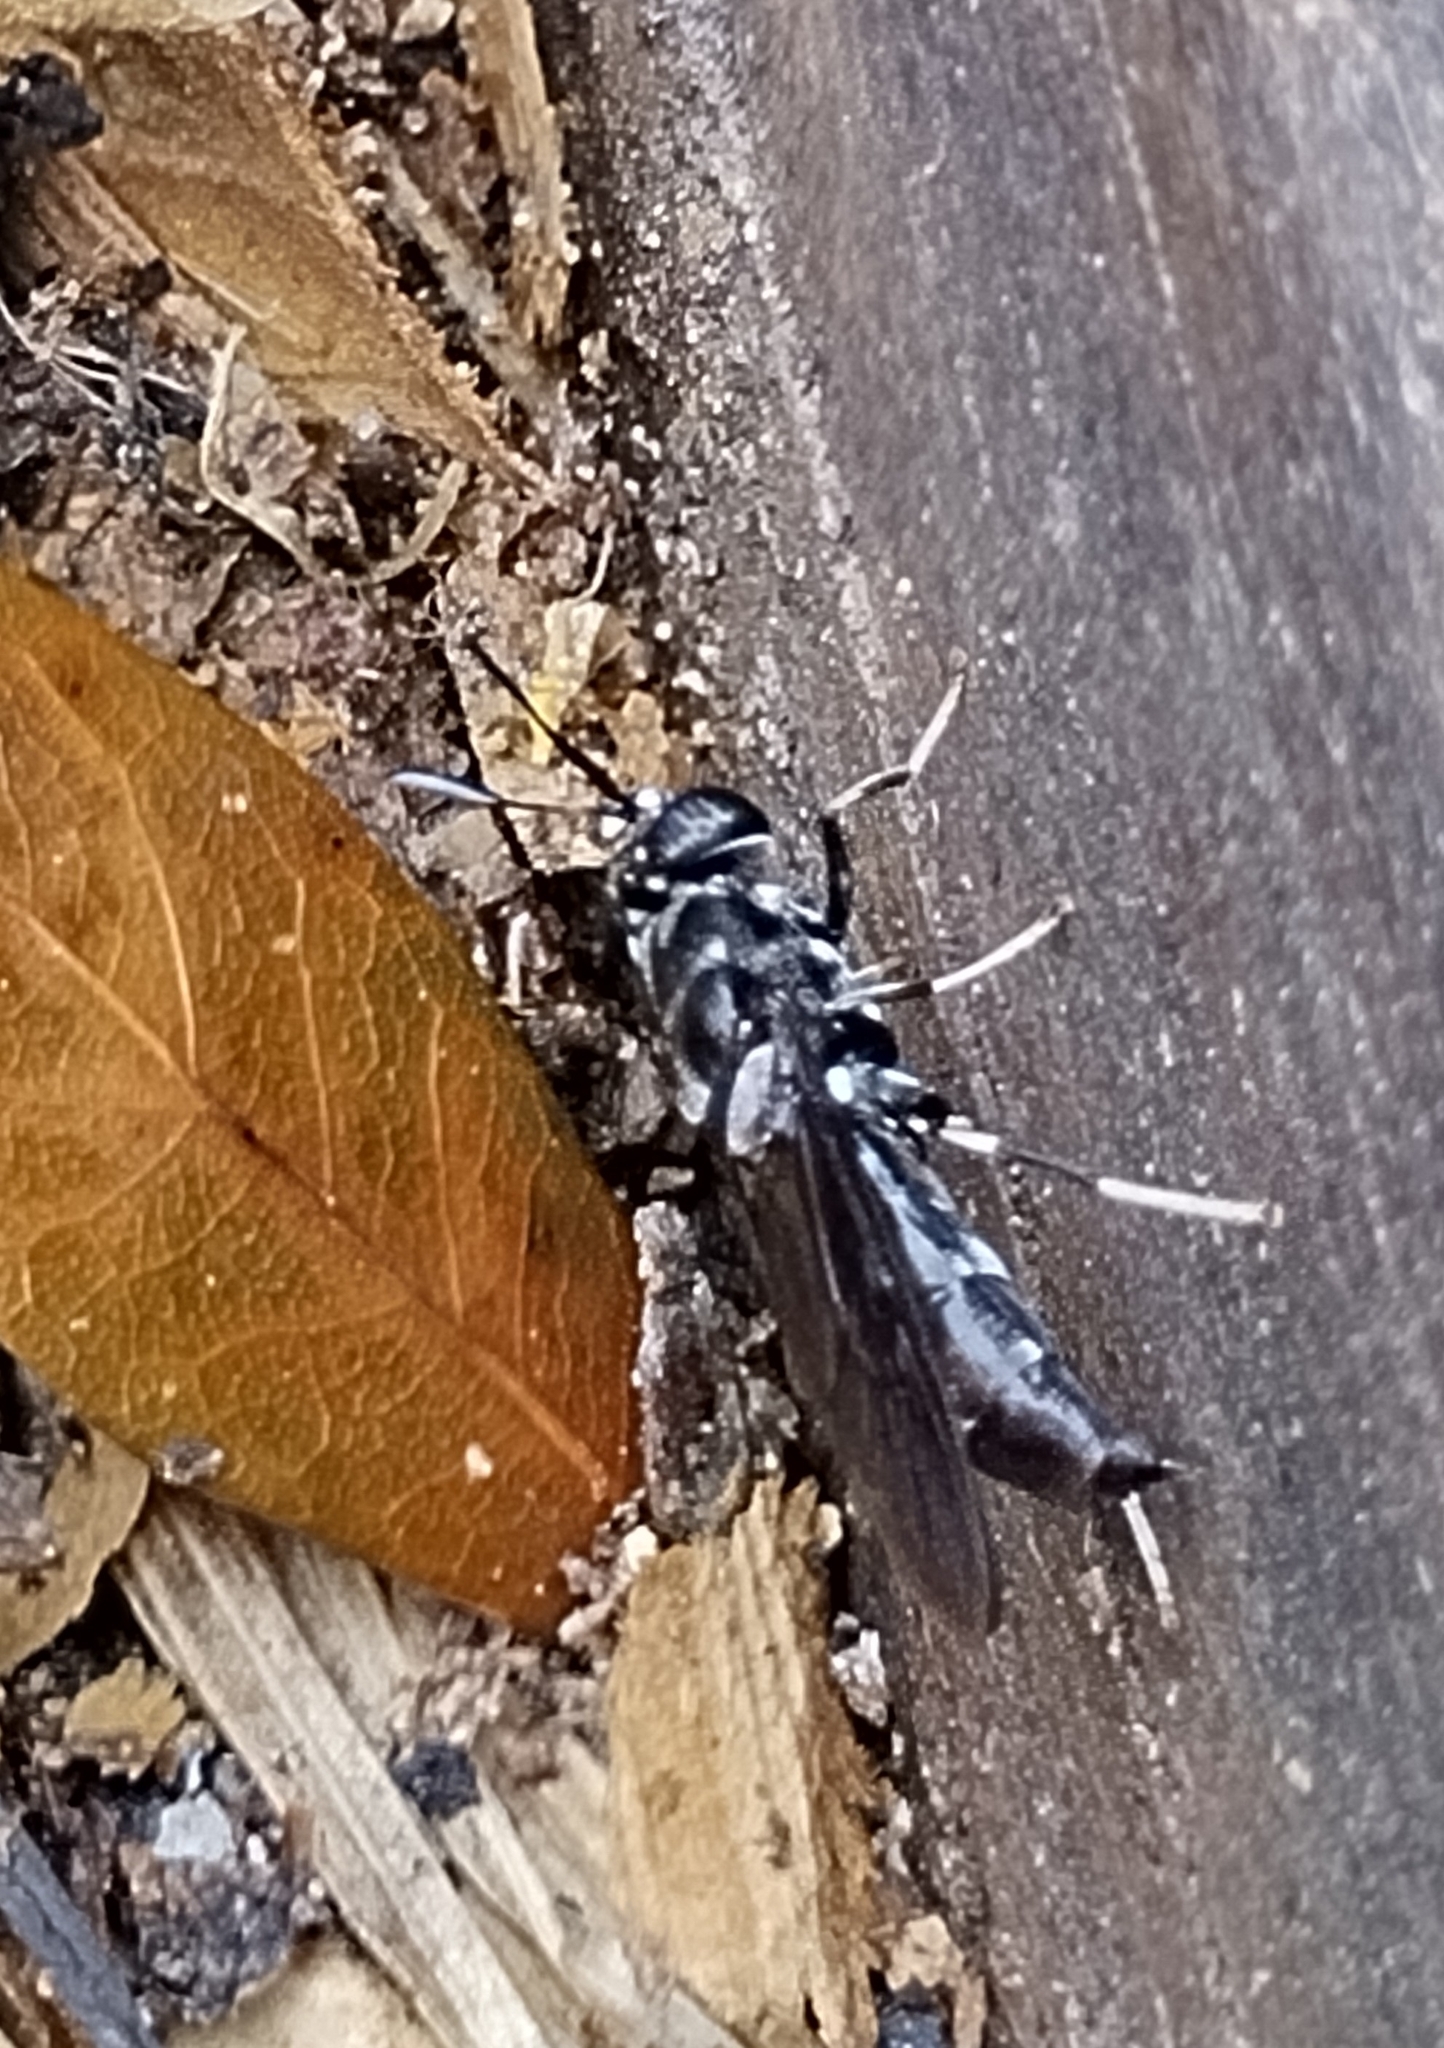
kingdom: Animalia
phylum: Arthropoda
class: Insecta
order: Diptera
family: Stratiomyidae
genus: Hermetia
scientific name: Hermetia illucens
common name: Black soldier fly
